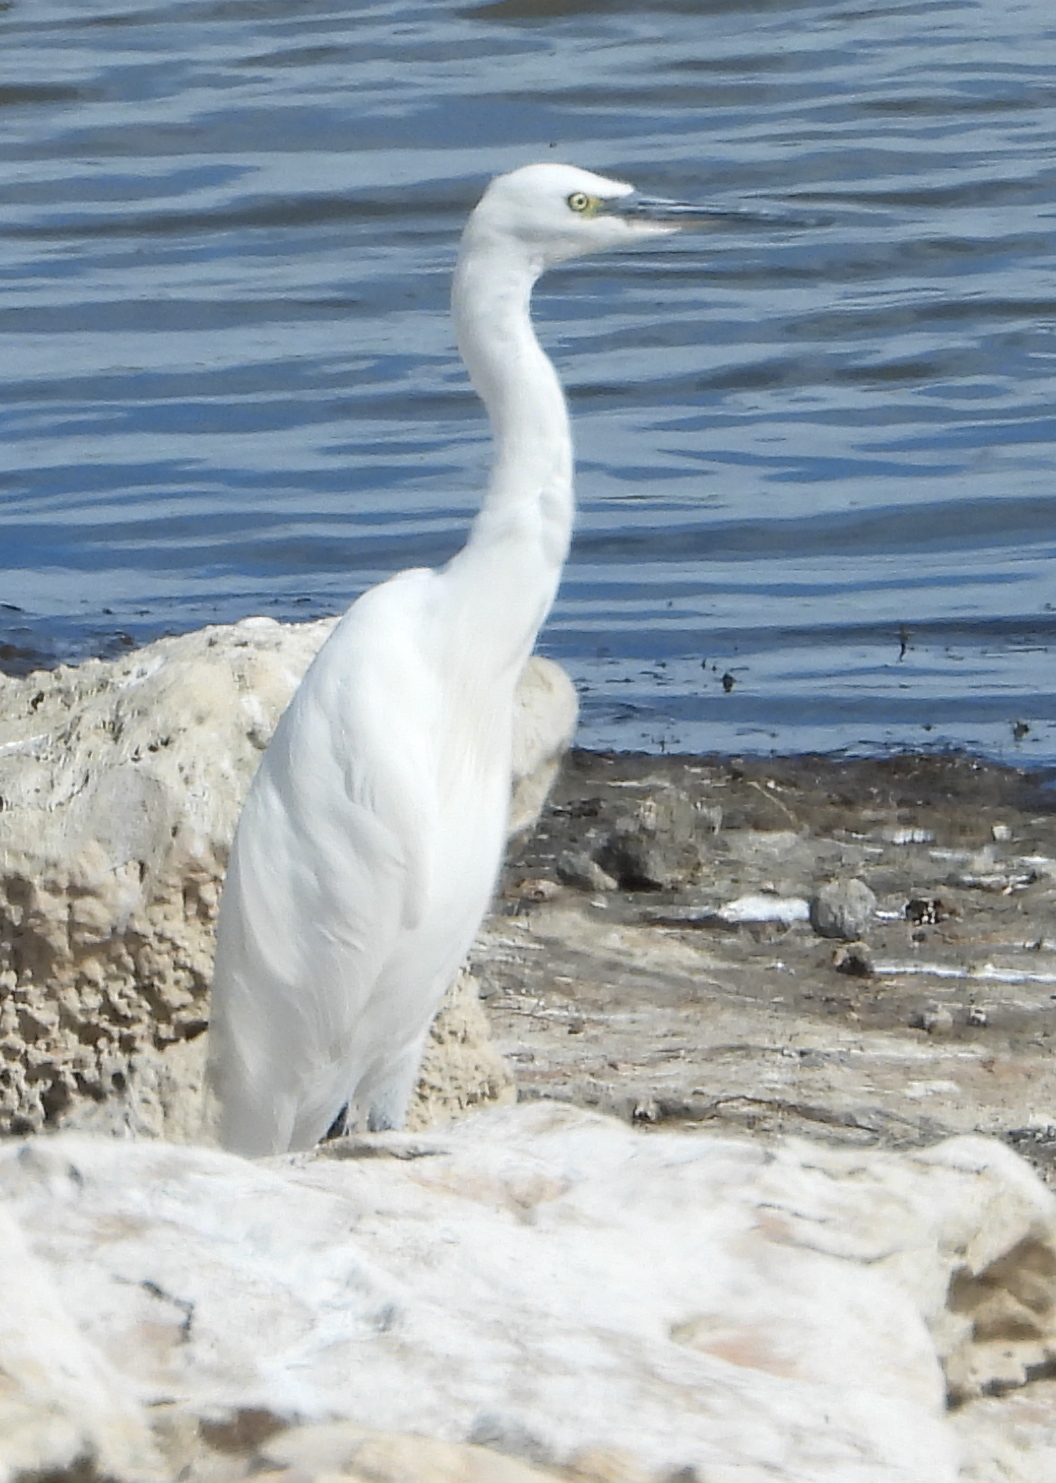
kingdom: Animalia
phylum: Chordata
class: Aves
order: Pelecaniformes
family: Ardeidae
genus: Egretta
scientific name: Egretta garzetta
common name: Little egret
